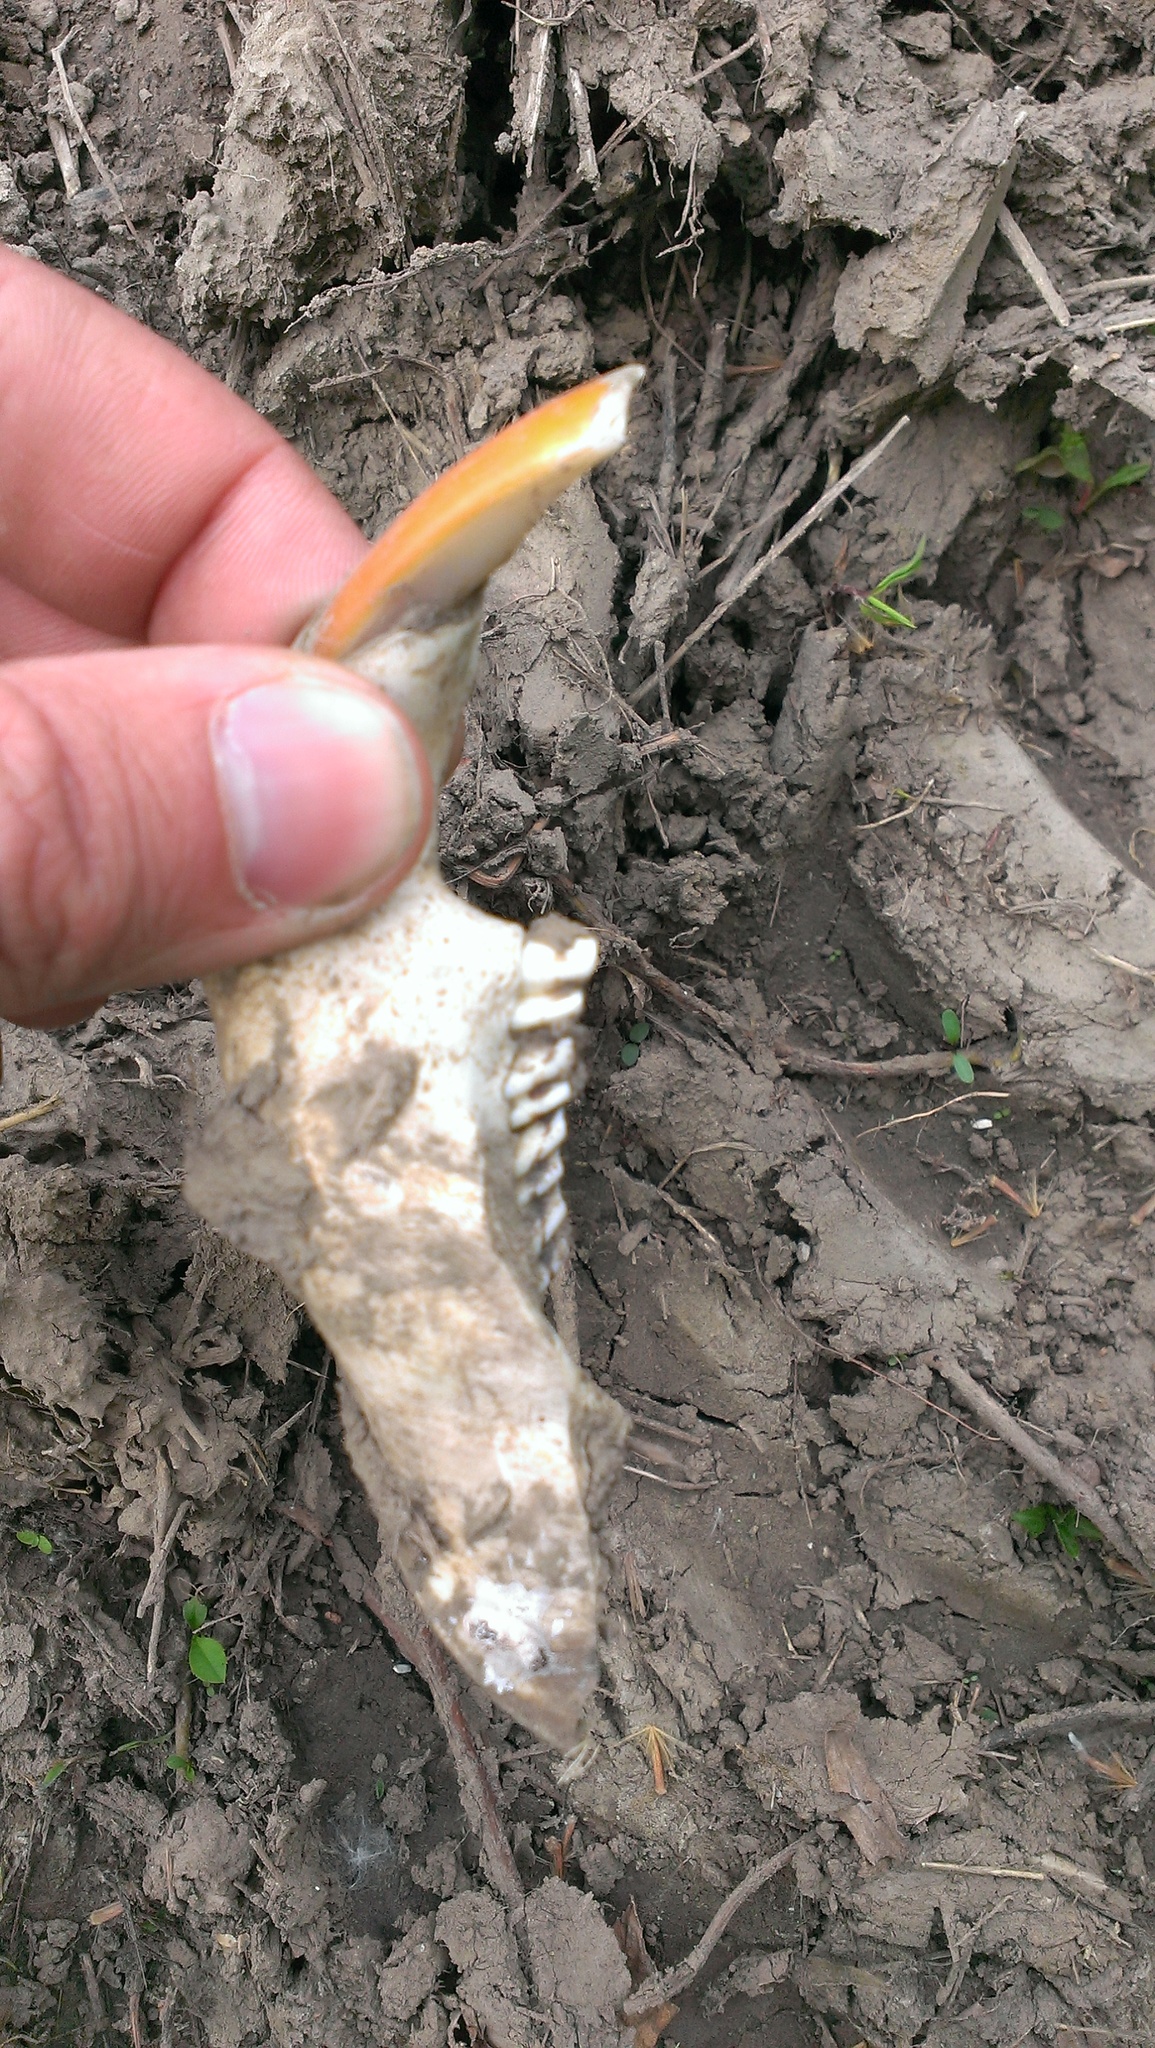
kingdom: Animalia
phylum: Chordata
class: Mammalia
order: Rodentia
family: Castoridae
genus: Castor
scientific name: Castor canadensis
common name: American beaver
